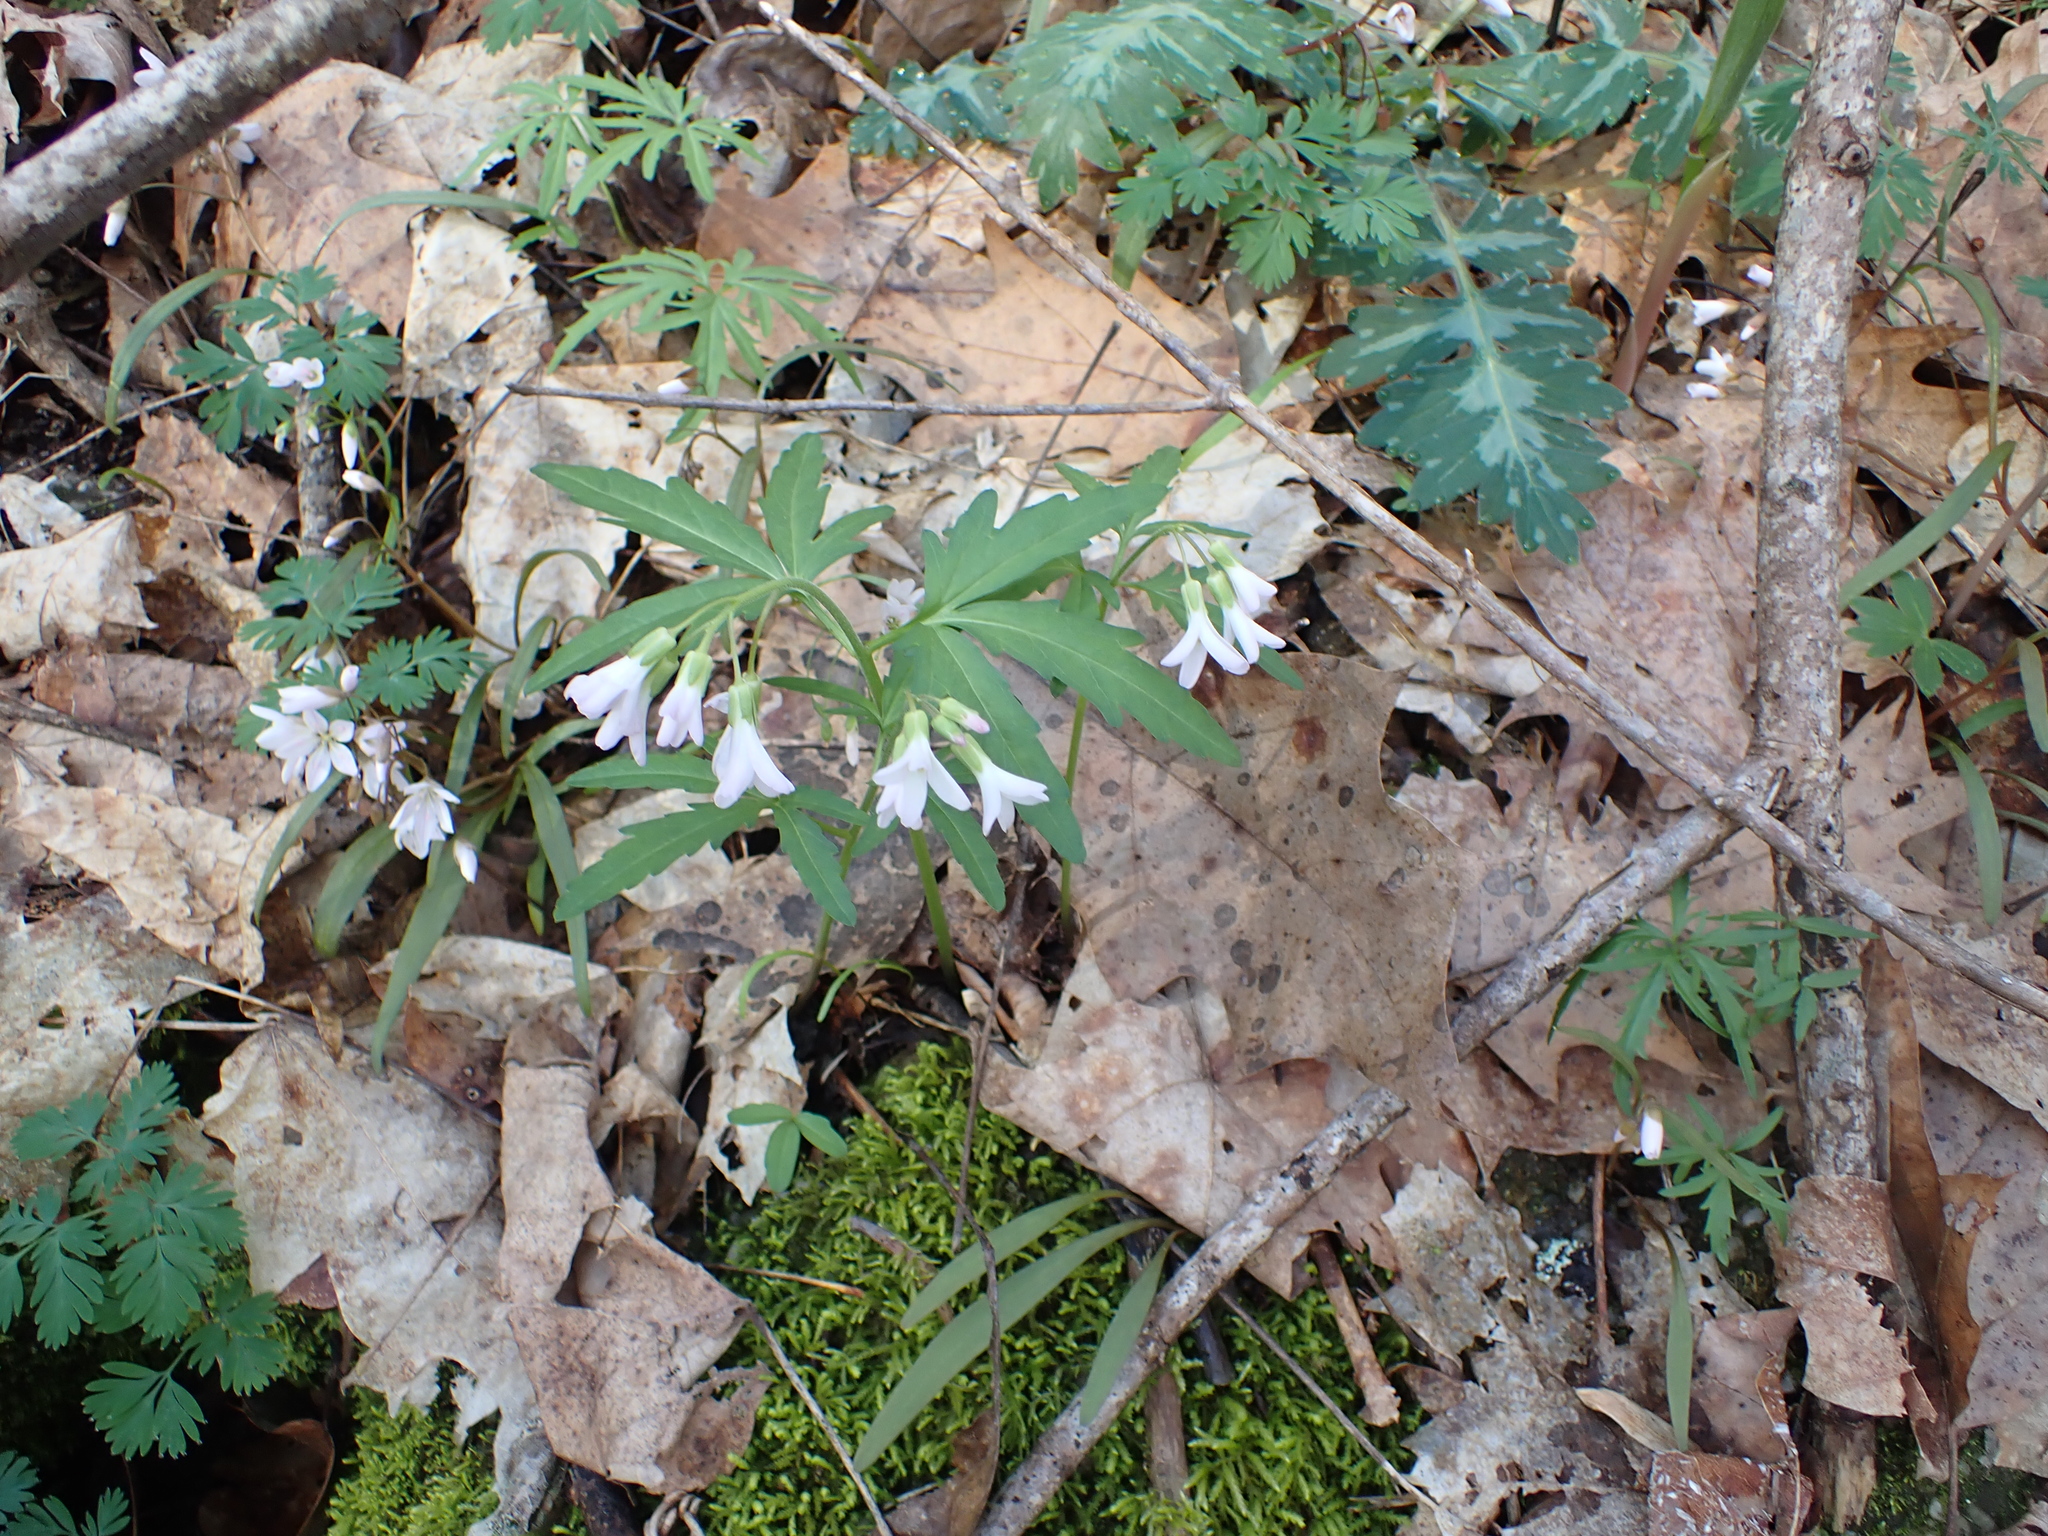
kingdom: Plantae
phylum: Tracheophyta
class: Magnoliopsida
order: Brassicales
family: Brassicaceae
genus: Cardamine
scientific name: Cardamine concatenata
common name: Cut-leaf toothcup
